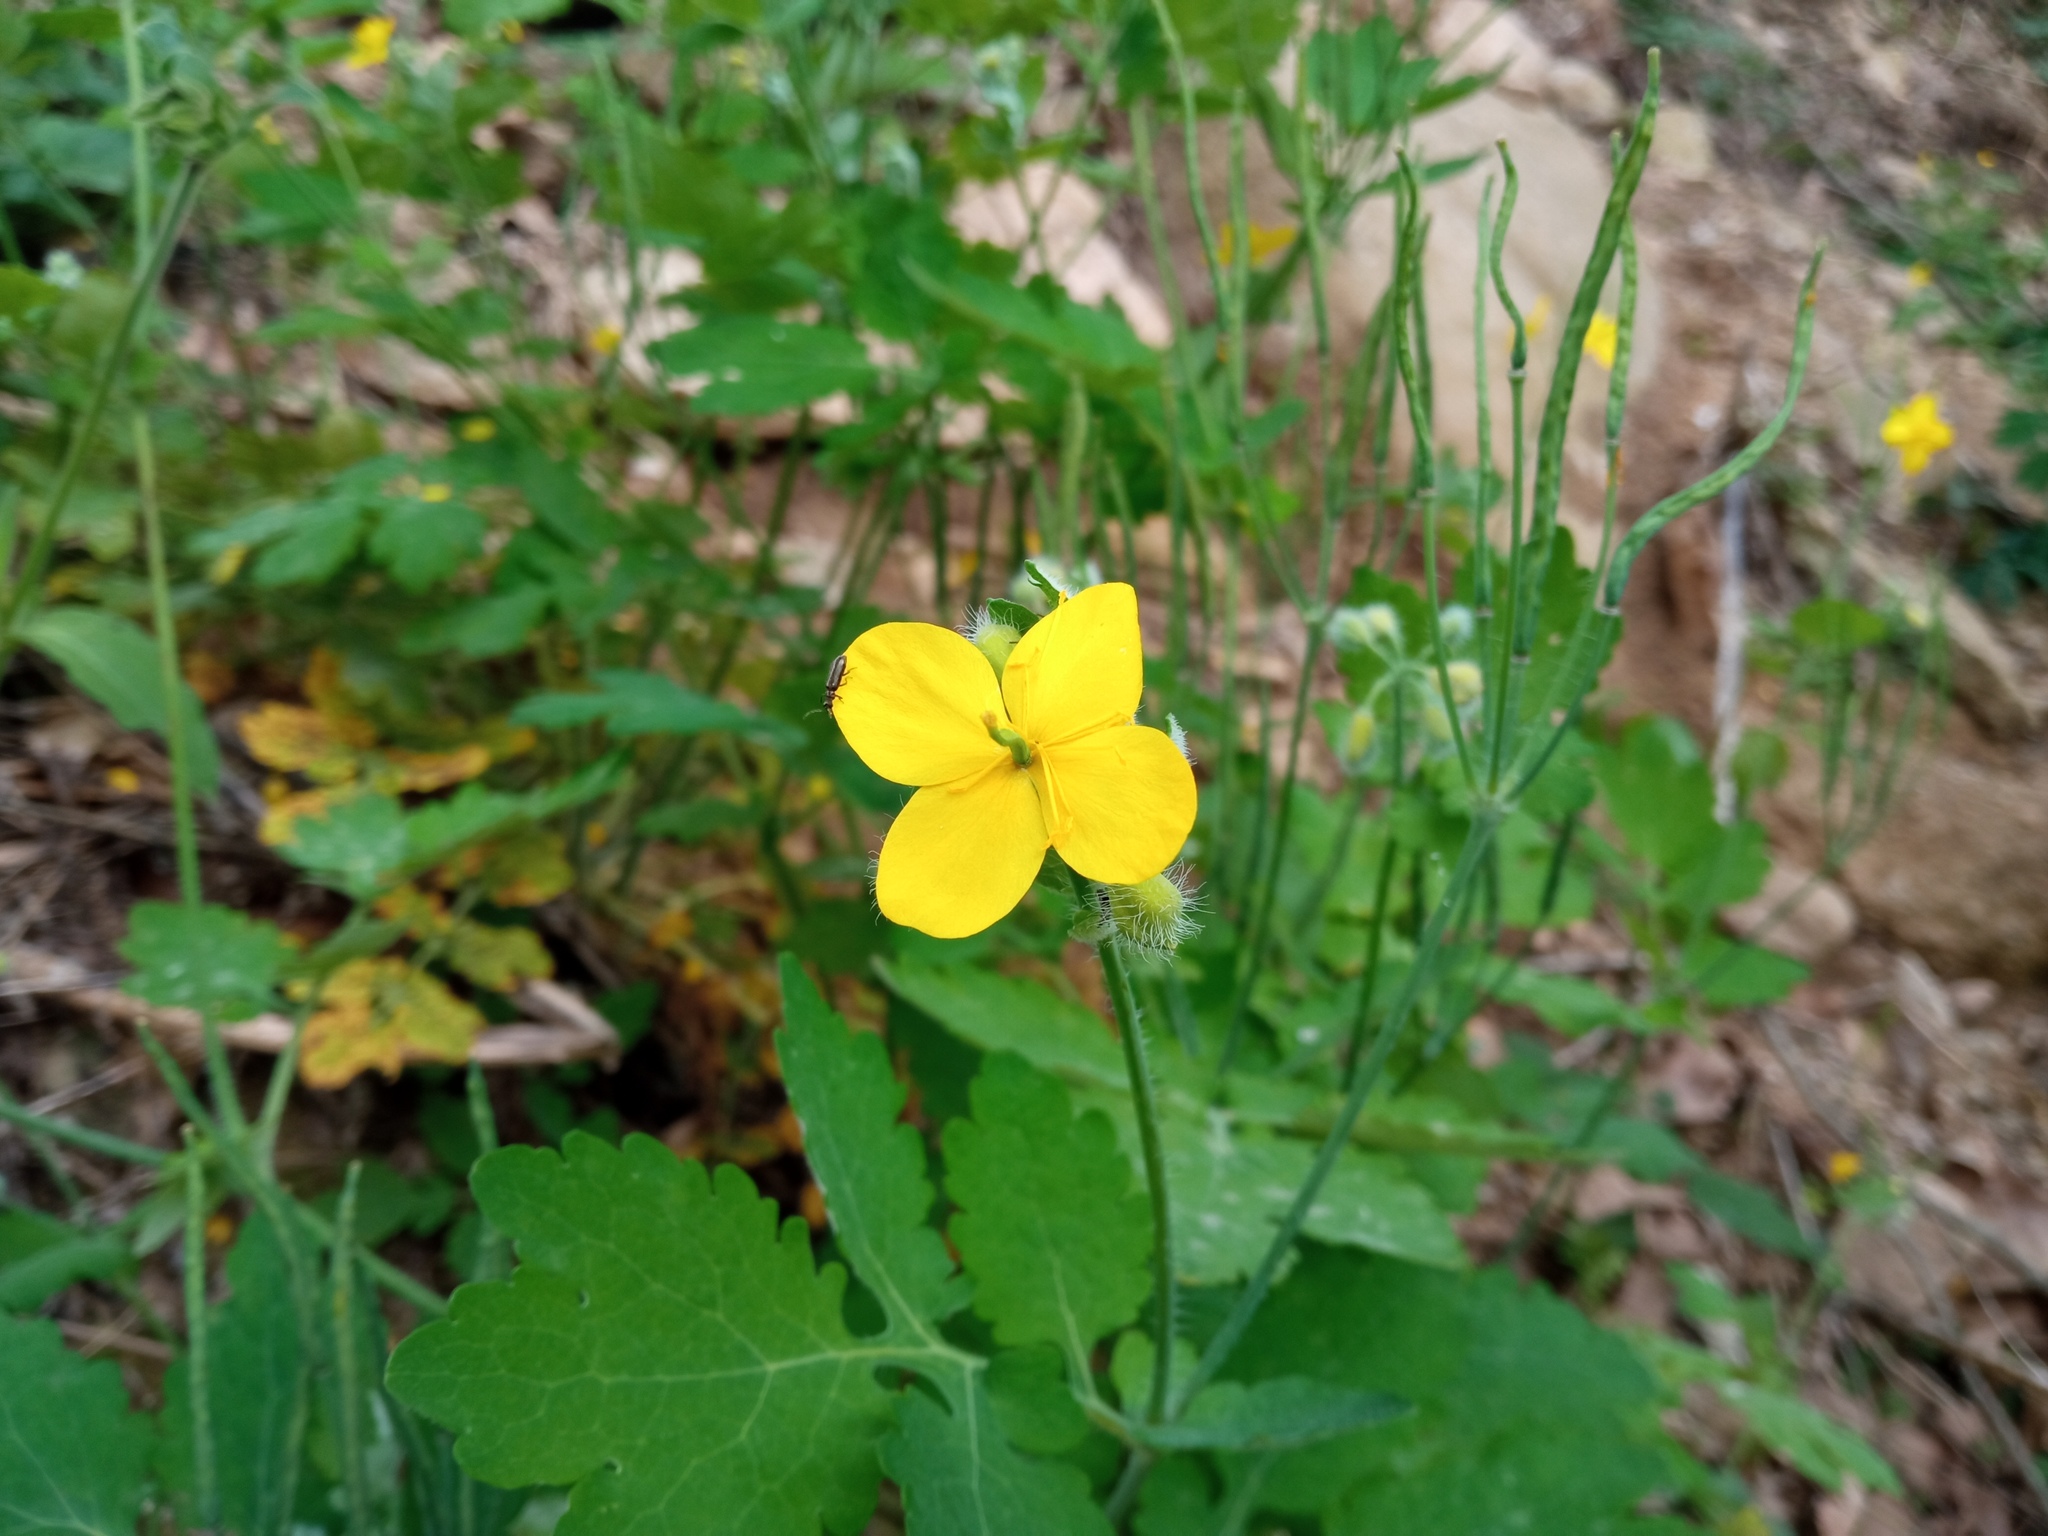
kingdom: Plantae
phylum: Tracheophyta
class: Magnoliopsida
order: Ranunculales
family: Papaveraceae
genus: Chelidonium
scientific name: Chelidonium majus
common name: Greater celandine
